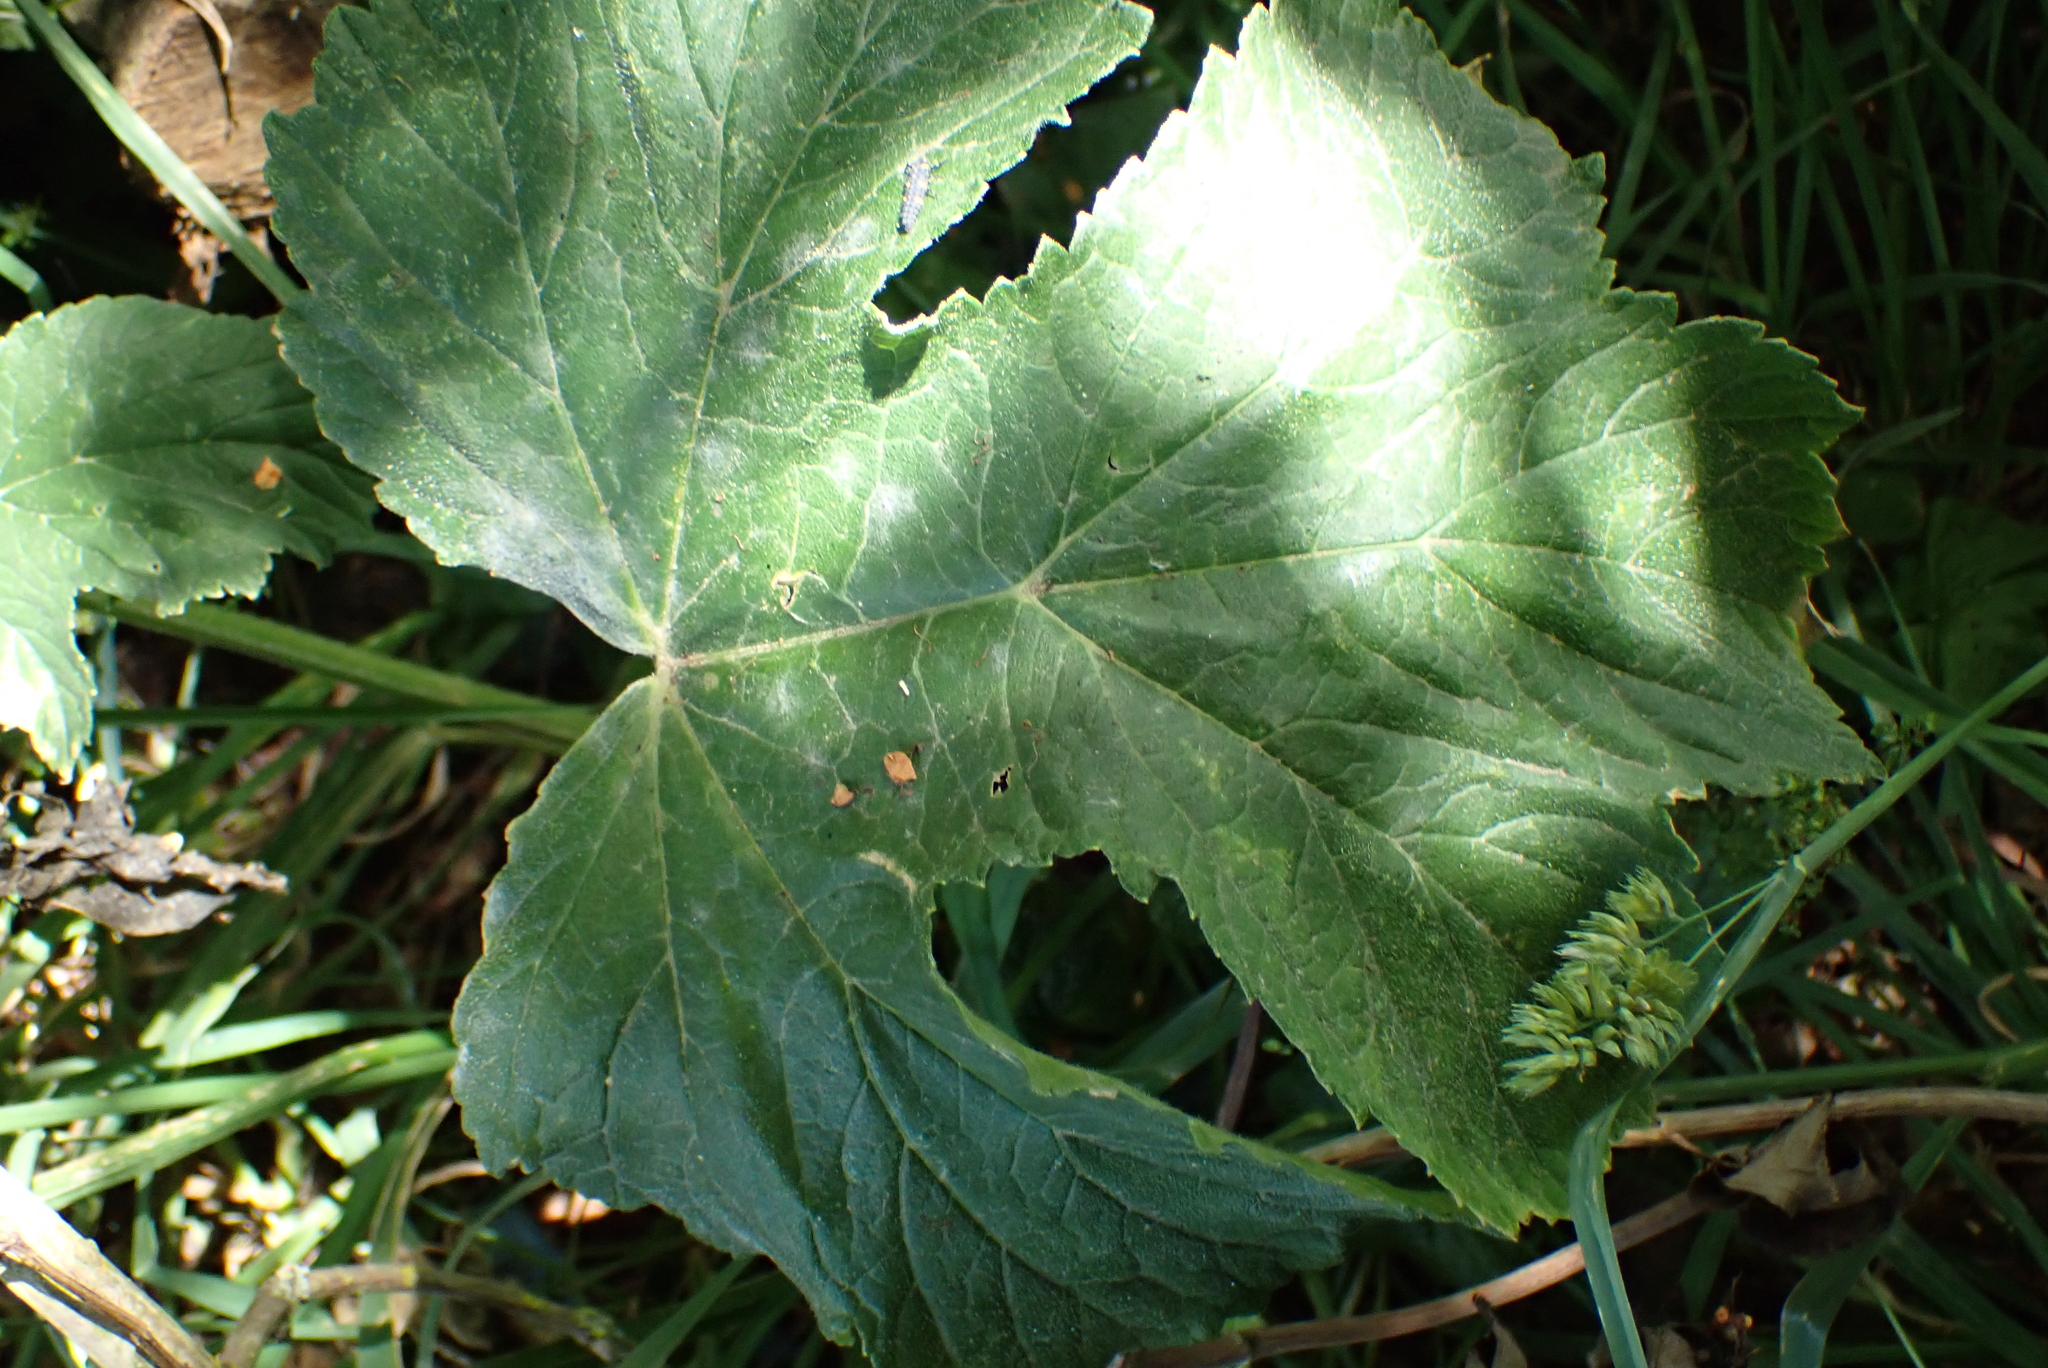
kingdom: Plantae
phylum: Tracheophyta
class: Magnoliopsida
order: Apiales
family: Apiaceae
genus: Heracleum
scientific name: Heracleum sphondylium
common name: Hogweed
